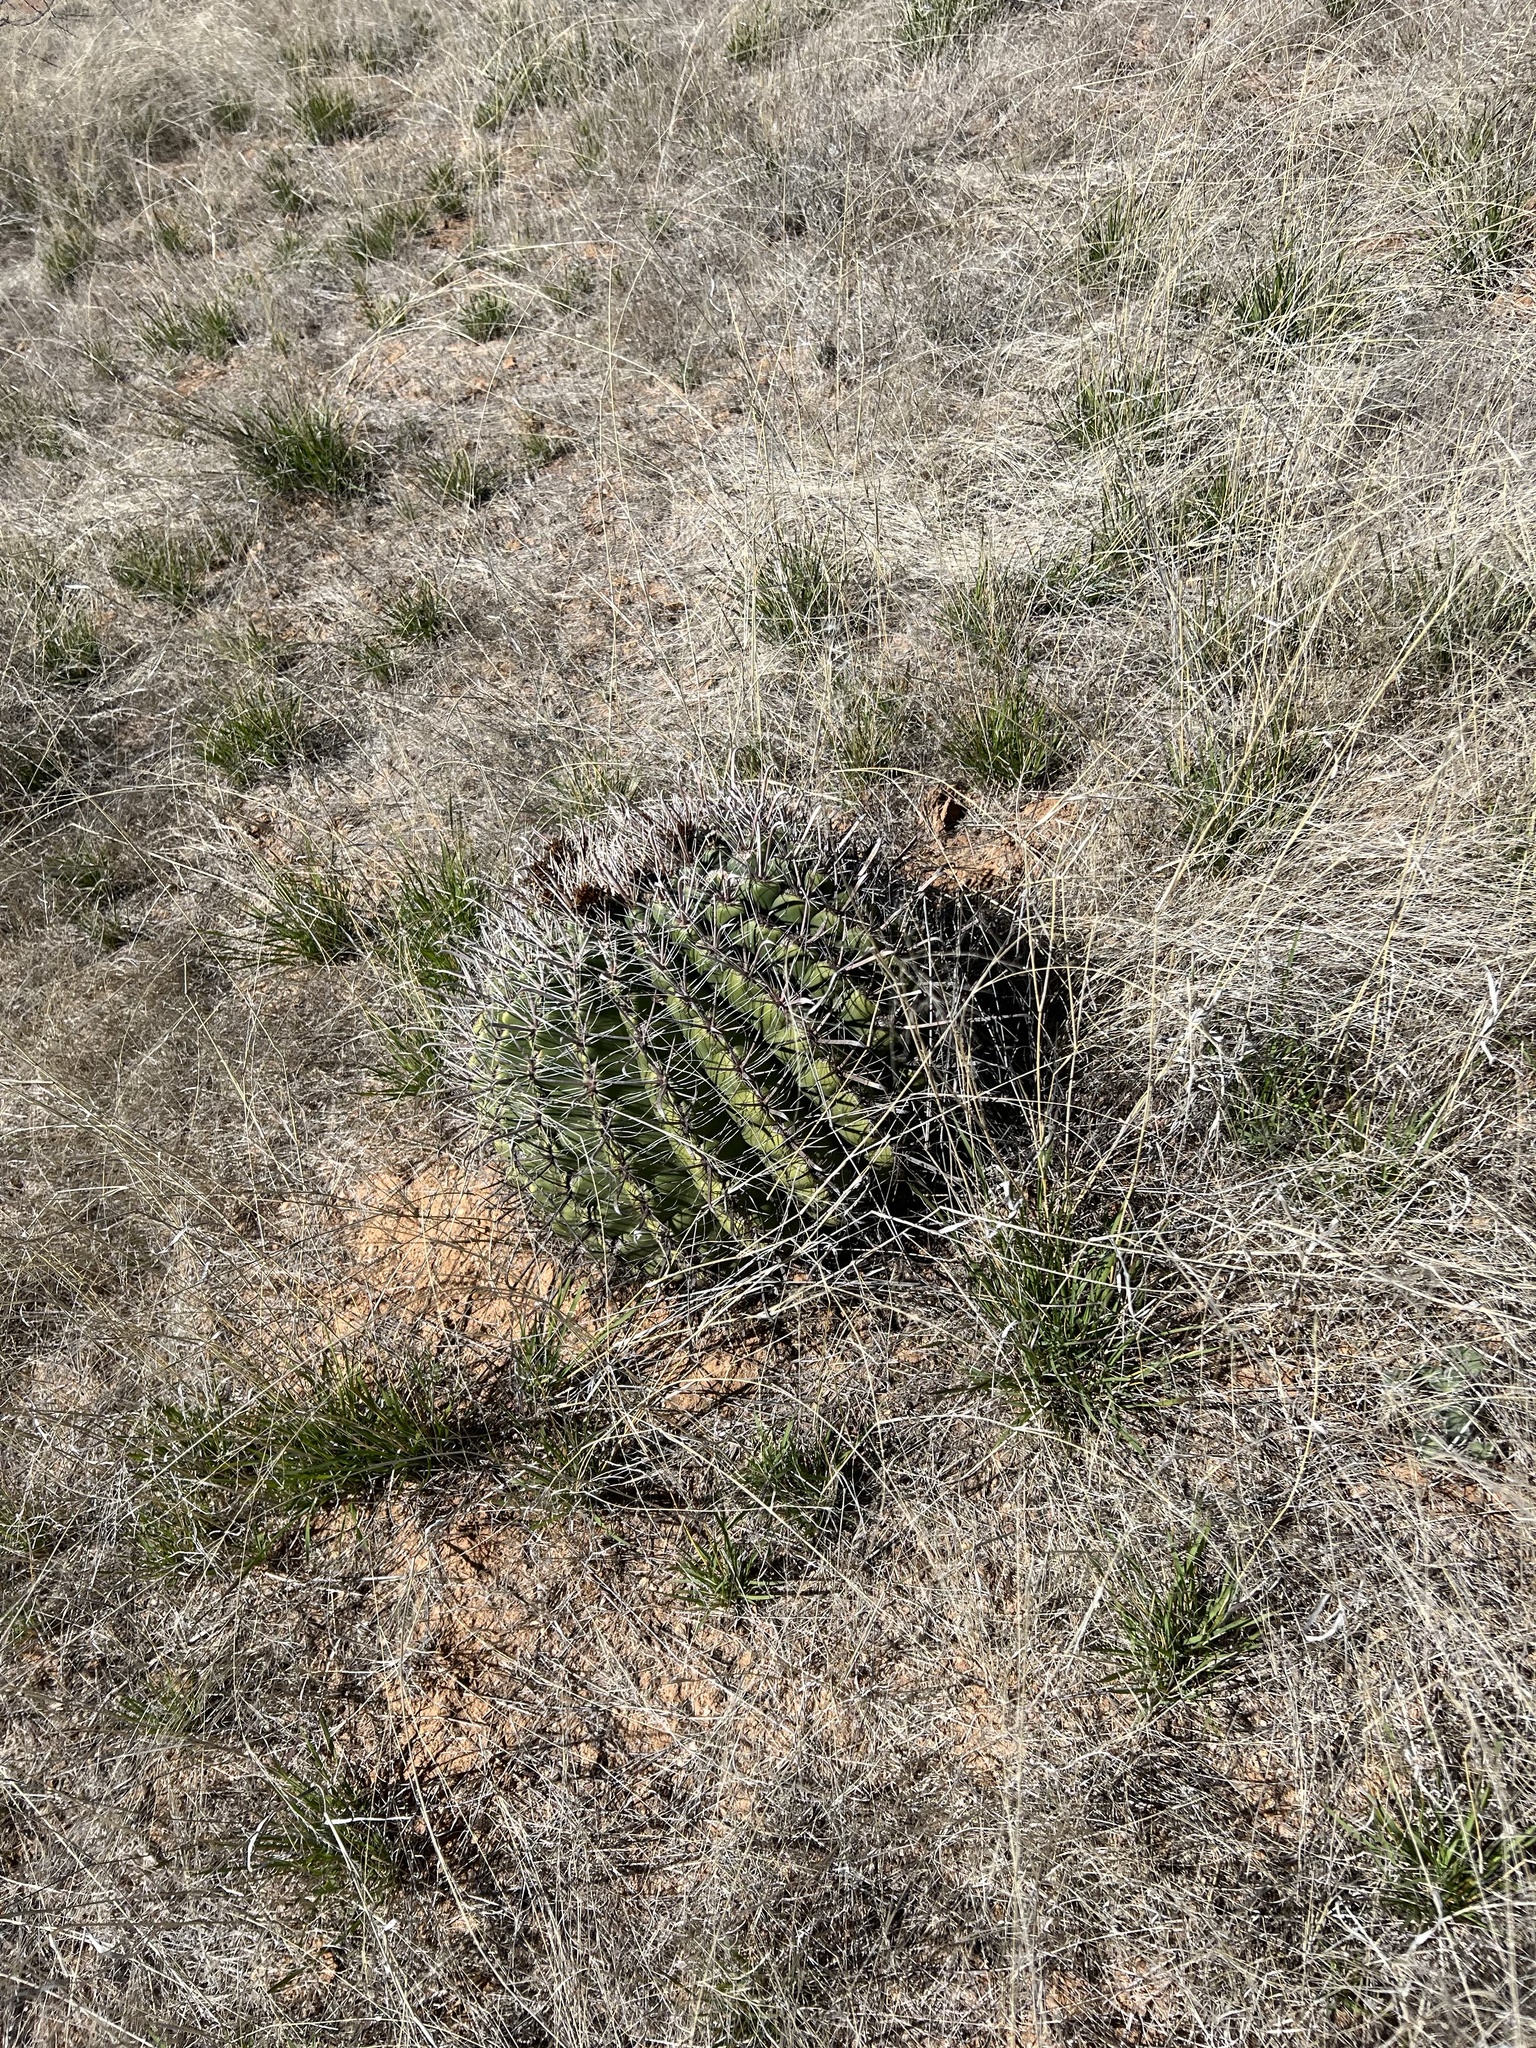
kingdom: Plantae
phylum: Tracheophyta
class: Magnoliopsida
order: Caryophyllales
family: Cactaceae
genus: Ferocactus
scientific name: Ferocactus wislizeni
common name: Candy barrel cactus
